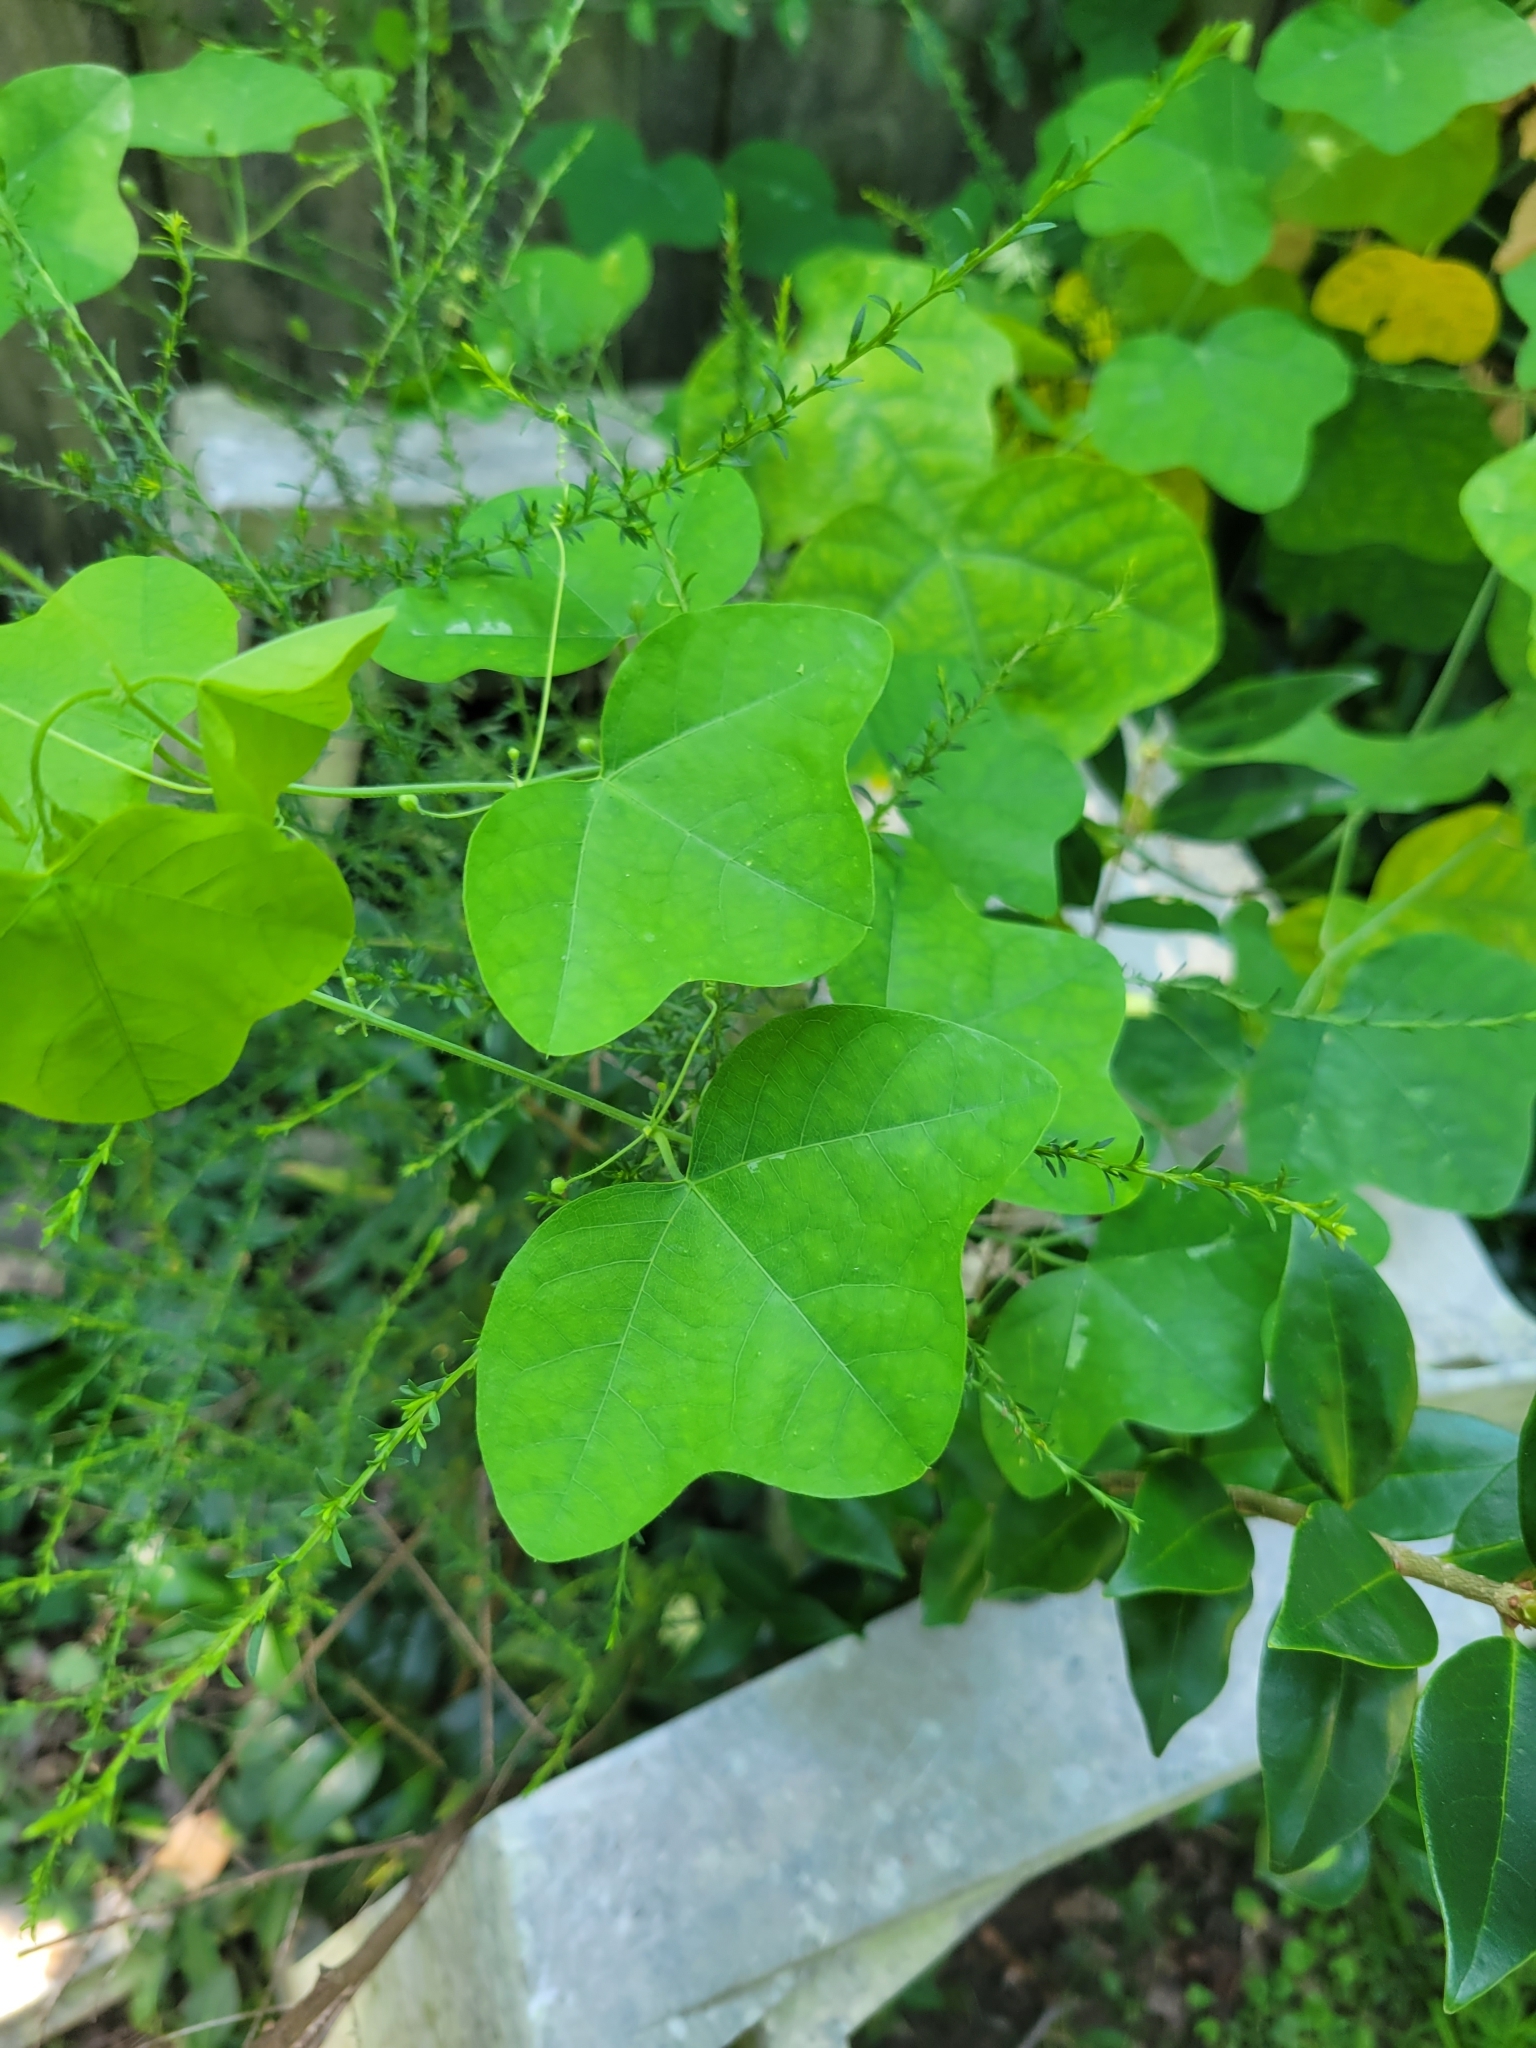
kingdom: Plantae
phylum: Tracheophyta
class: Magnoliopsida
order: Malpighiales
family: Passifloraceae
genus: Passiflora
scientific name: Passiflora lutea
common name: Yellow passionflower
